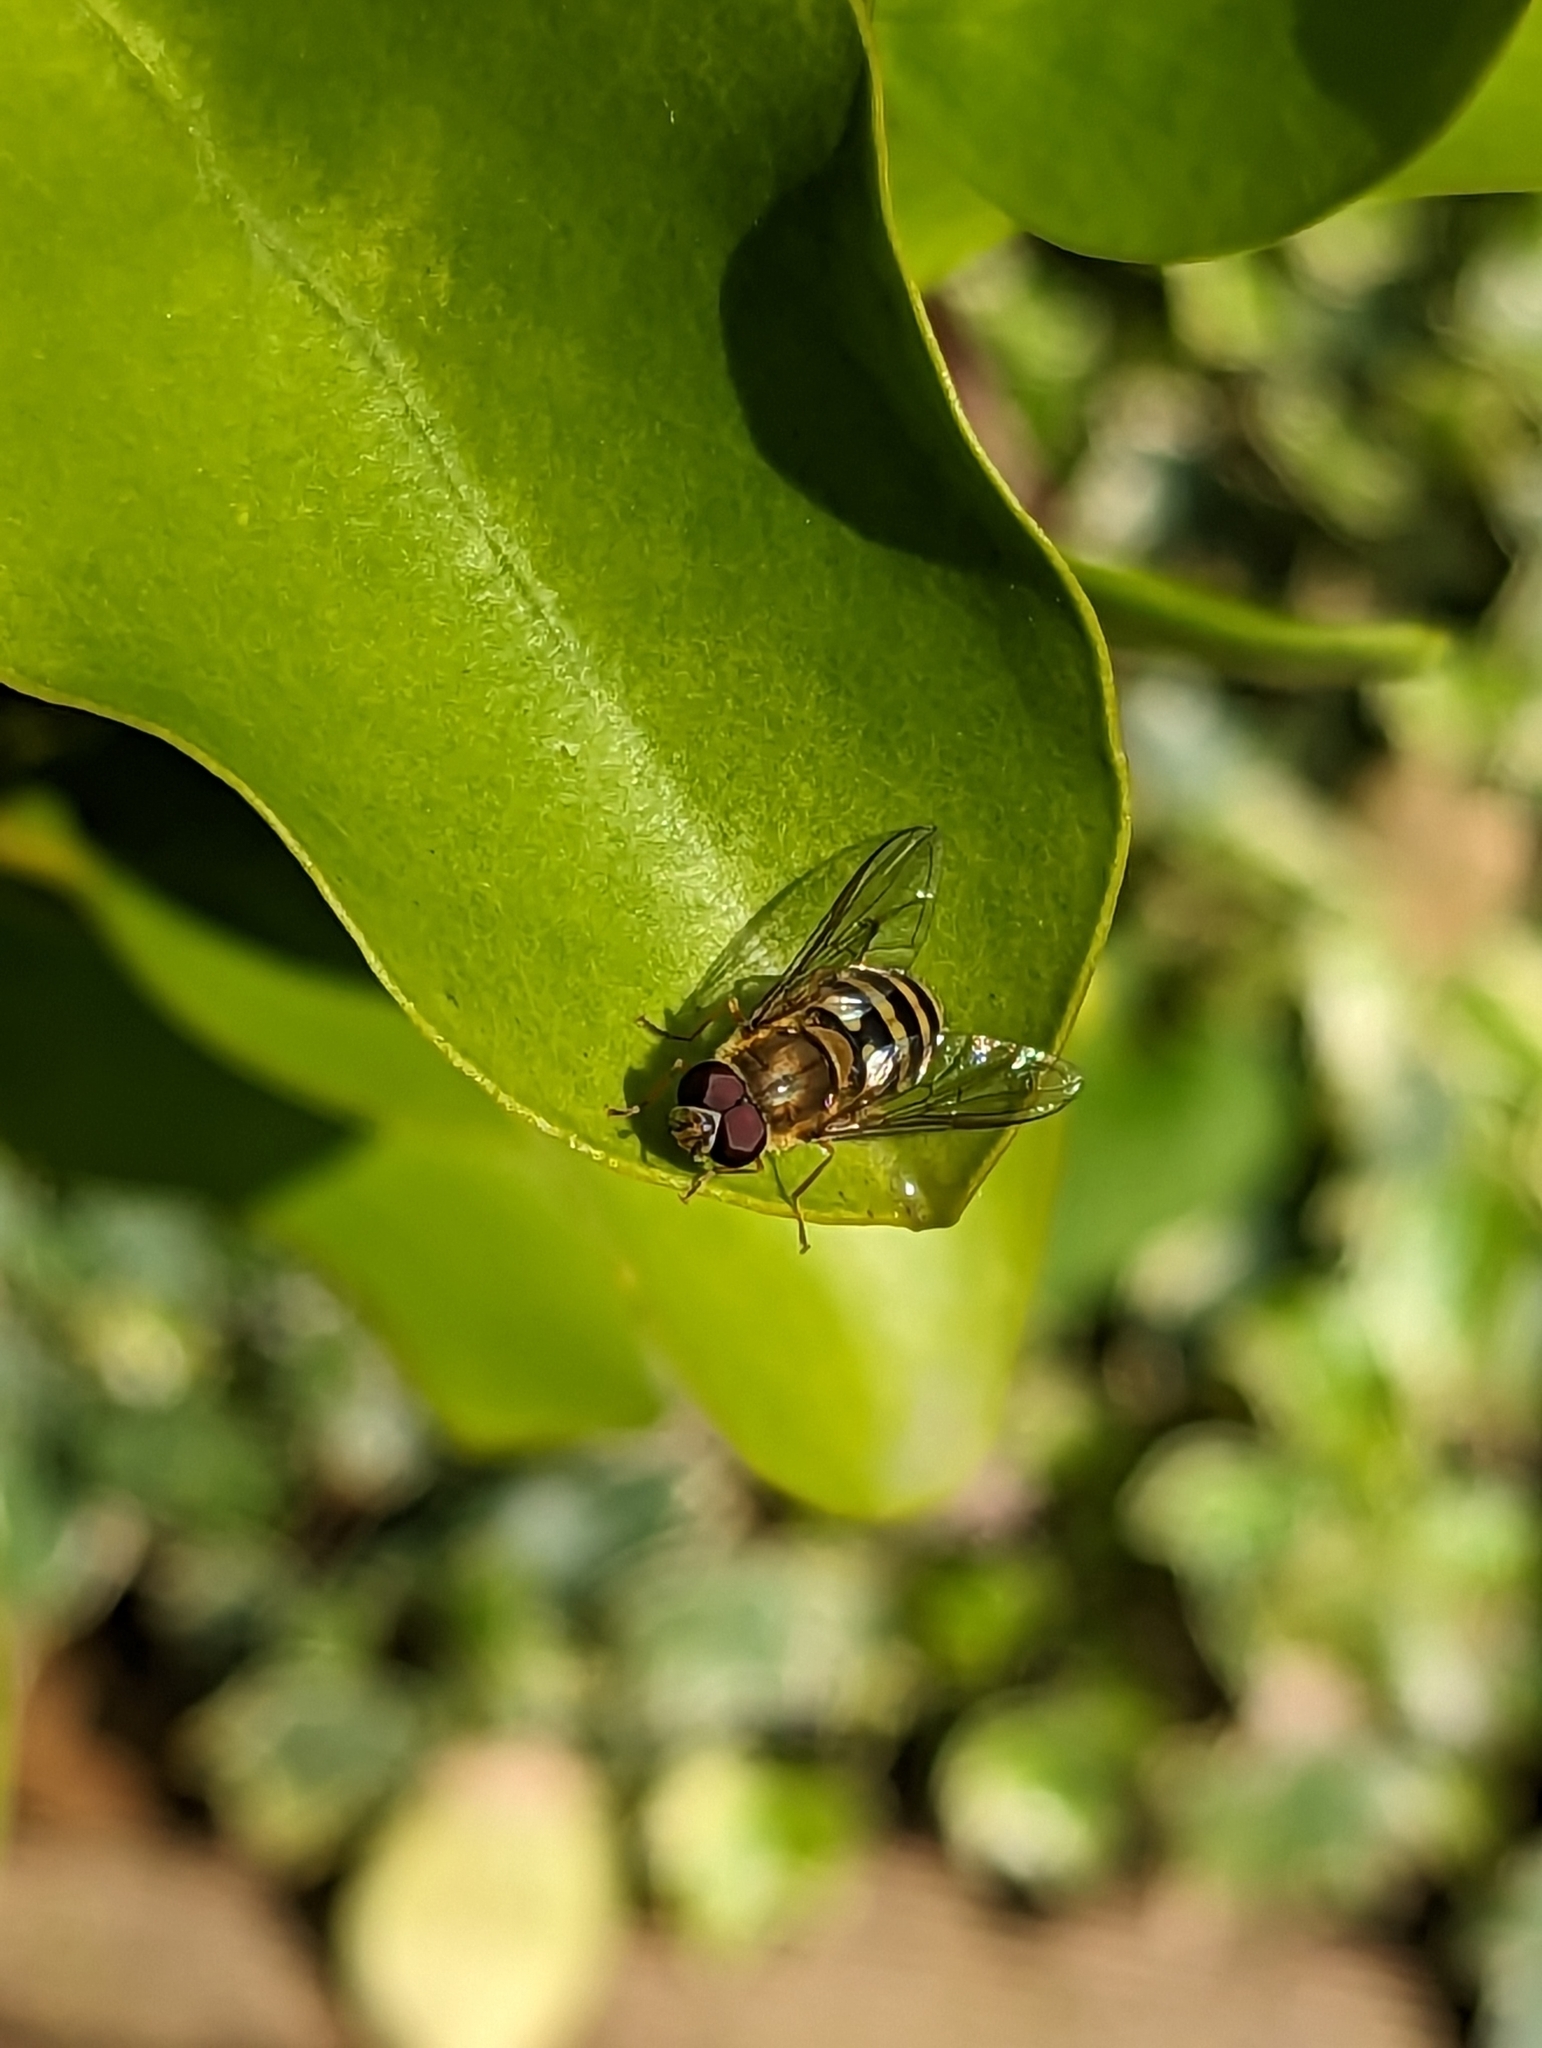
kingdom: Animalia
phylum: Arthropoda
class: Insecta
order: Diptera
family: Syrphidae
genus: Syrphus
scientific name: Syrphus
